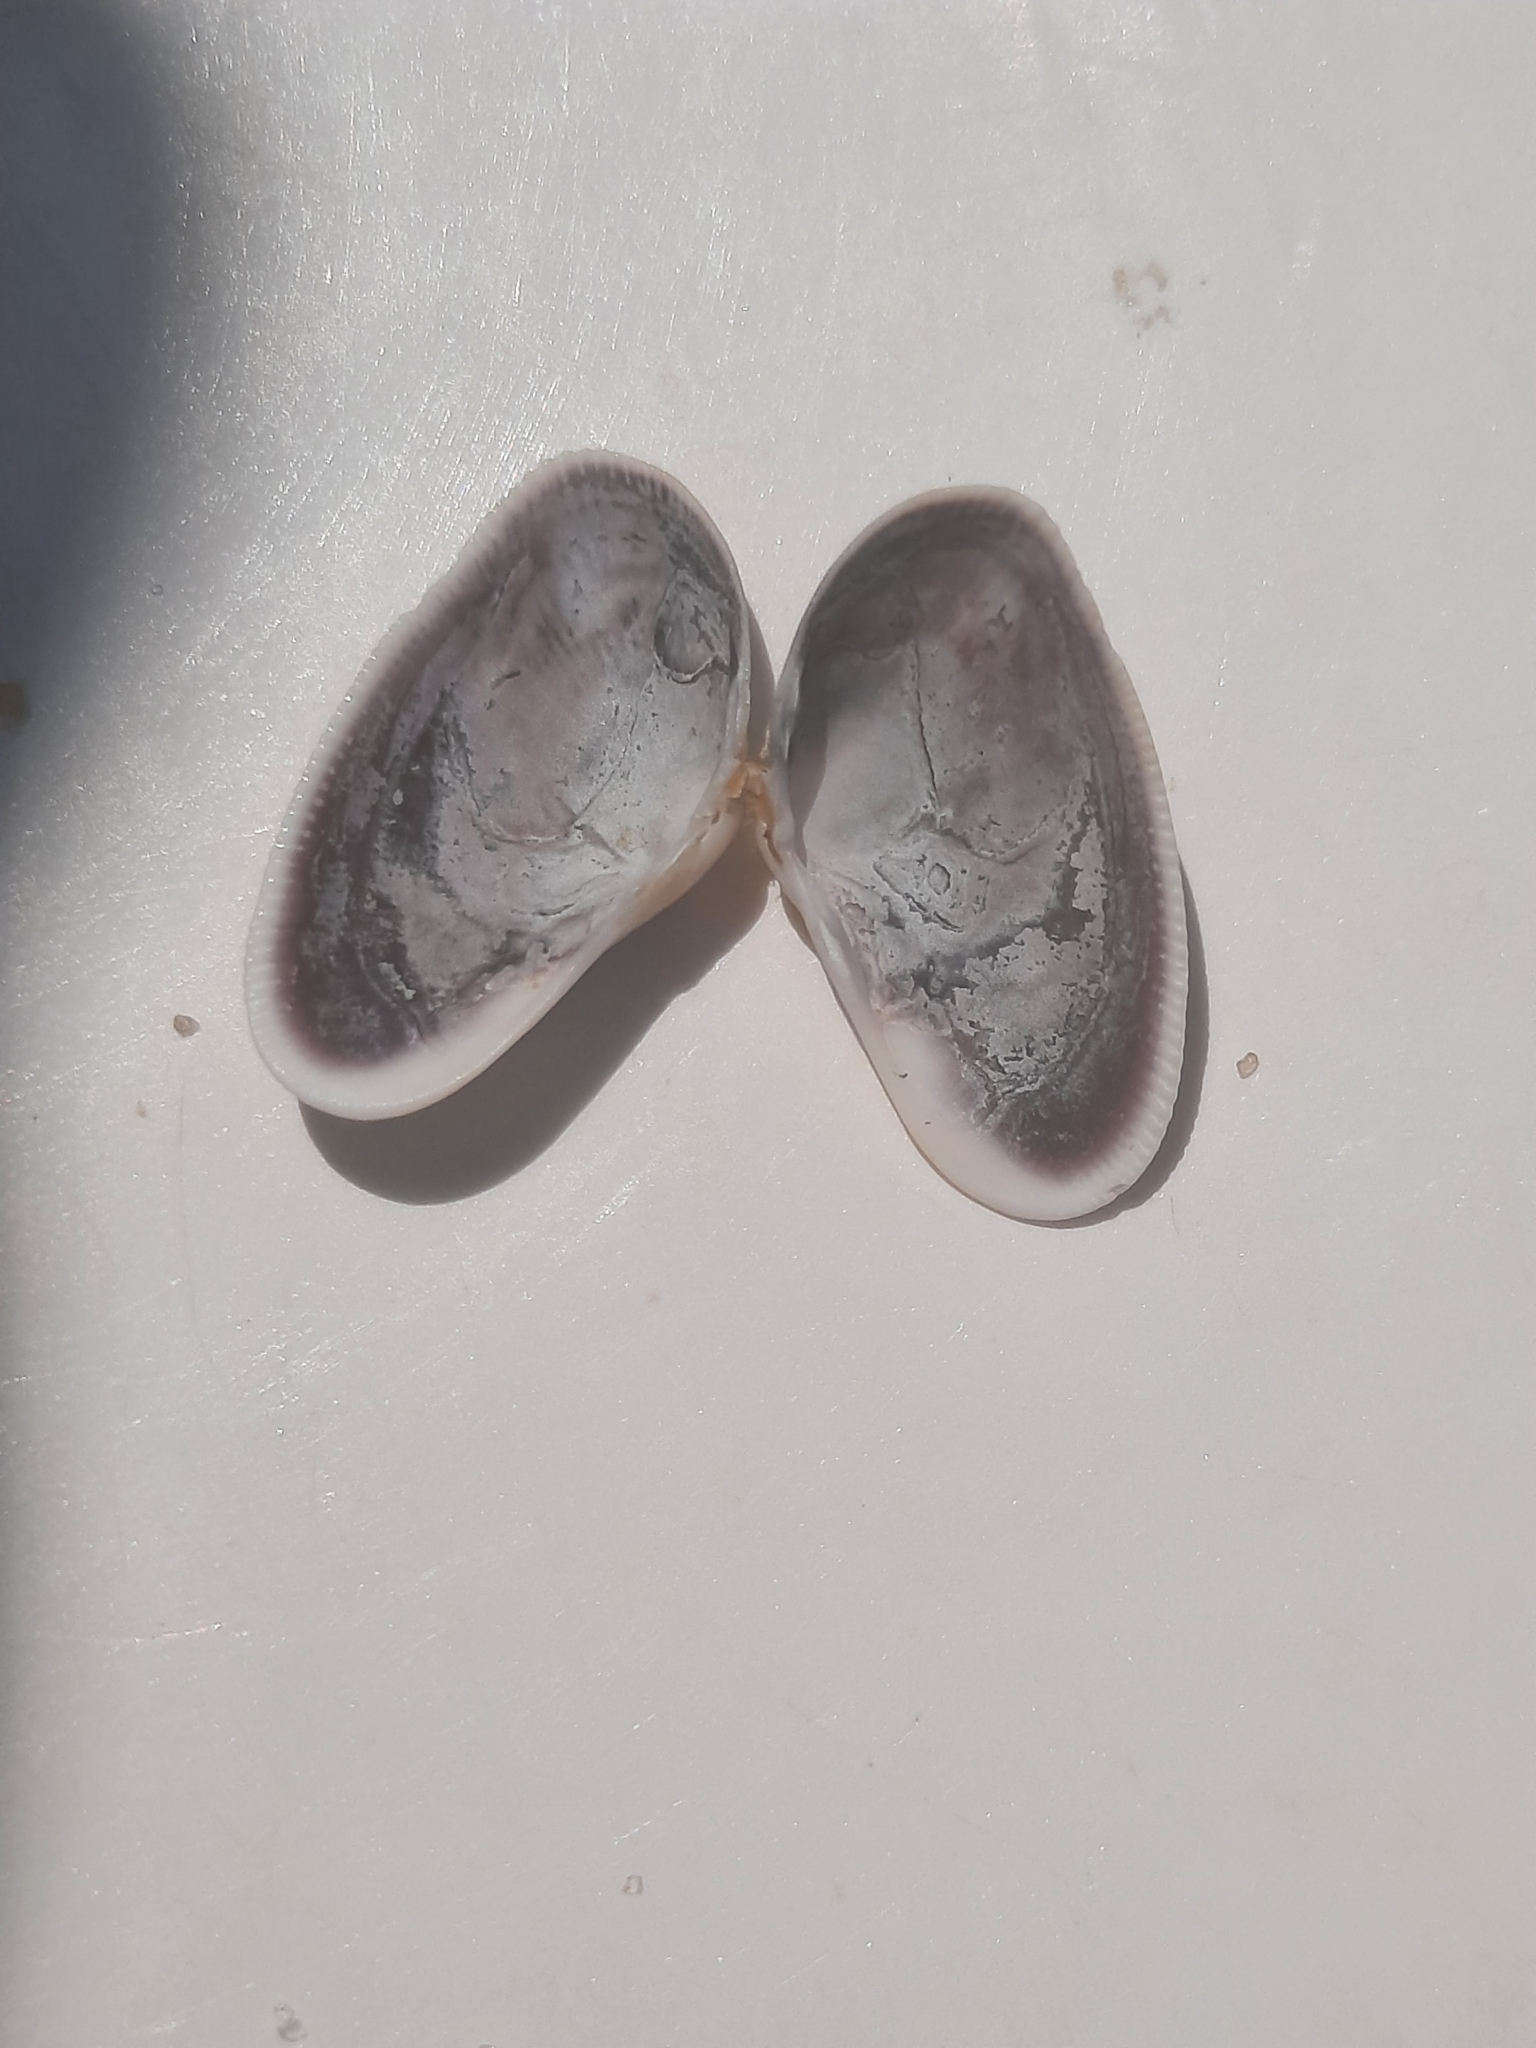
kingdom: Animalia
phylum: Mollusca
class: Bivalvia
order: Cardiida
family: Donacidae
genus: Donax
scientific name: Donax fossor
